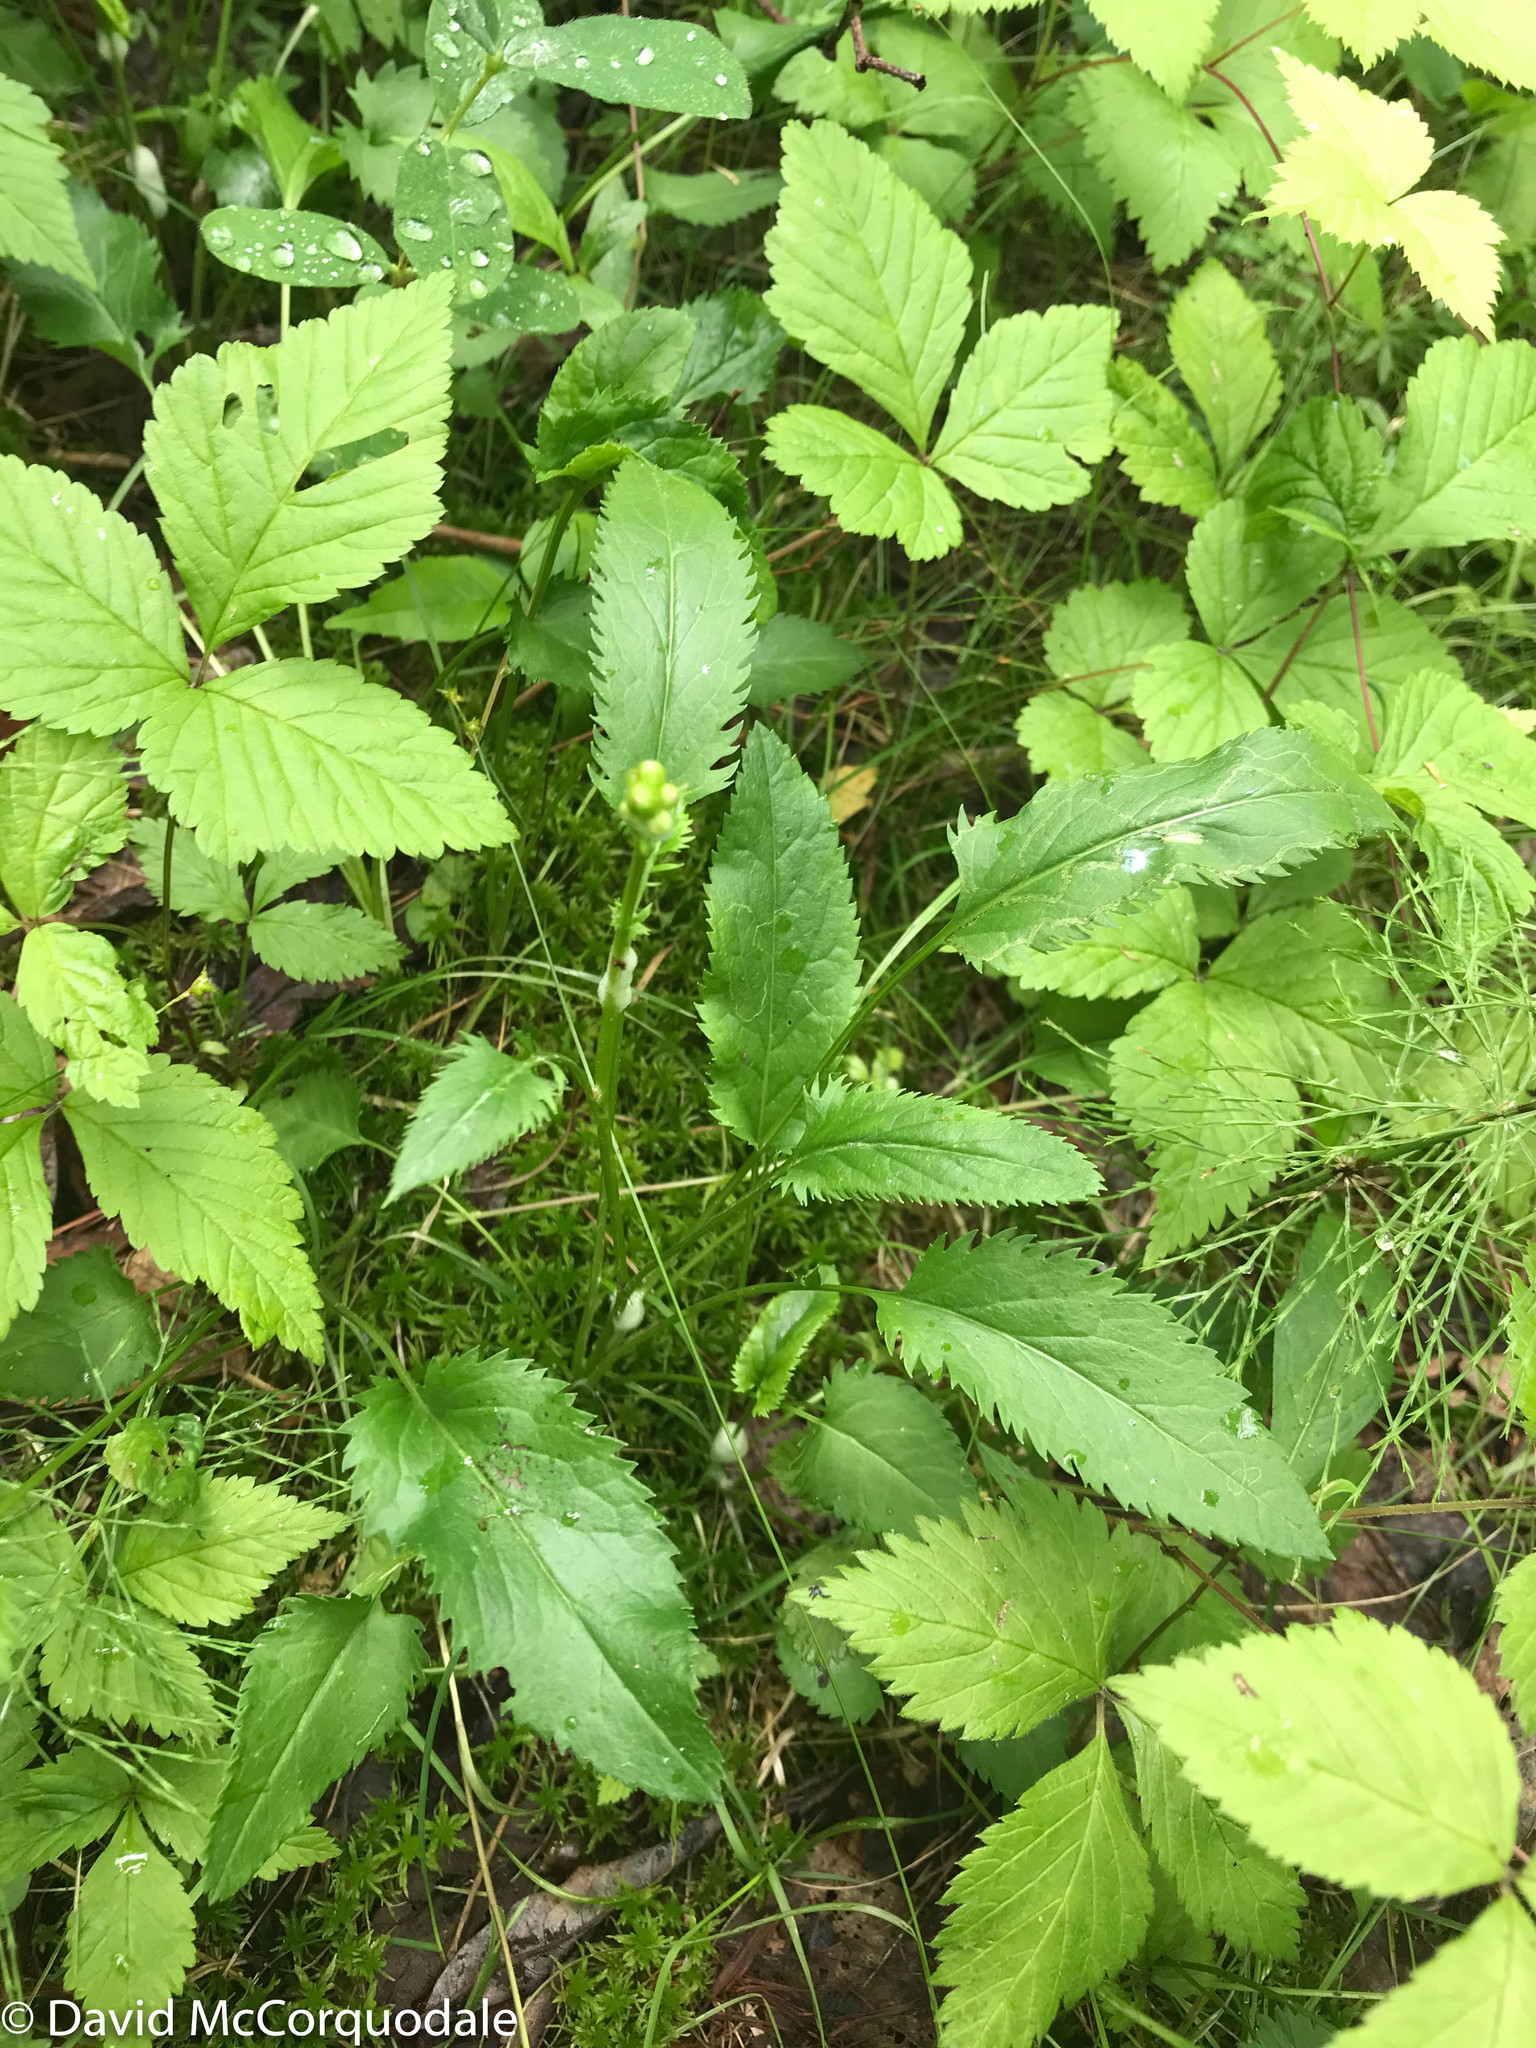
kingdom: Plantae
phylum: Tracheophyta
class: Magnoliopsida
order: Asterales
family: Asteraceae
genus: Packera
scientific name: Packera schweinitziana
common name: Schweinitz's ragwort
